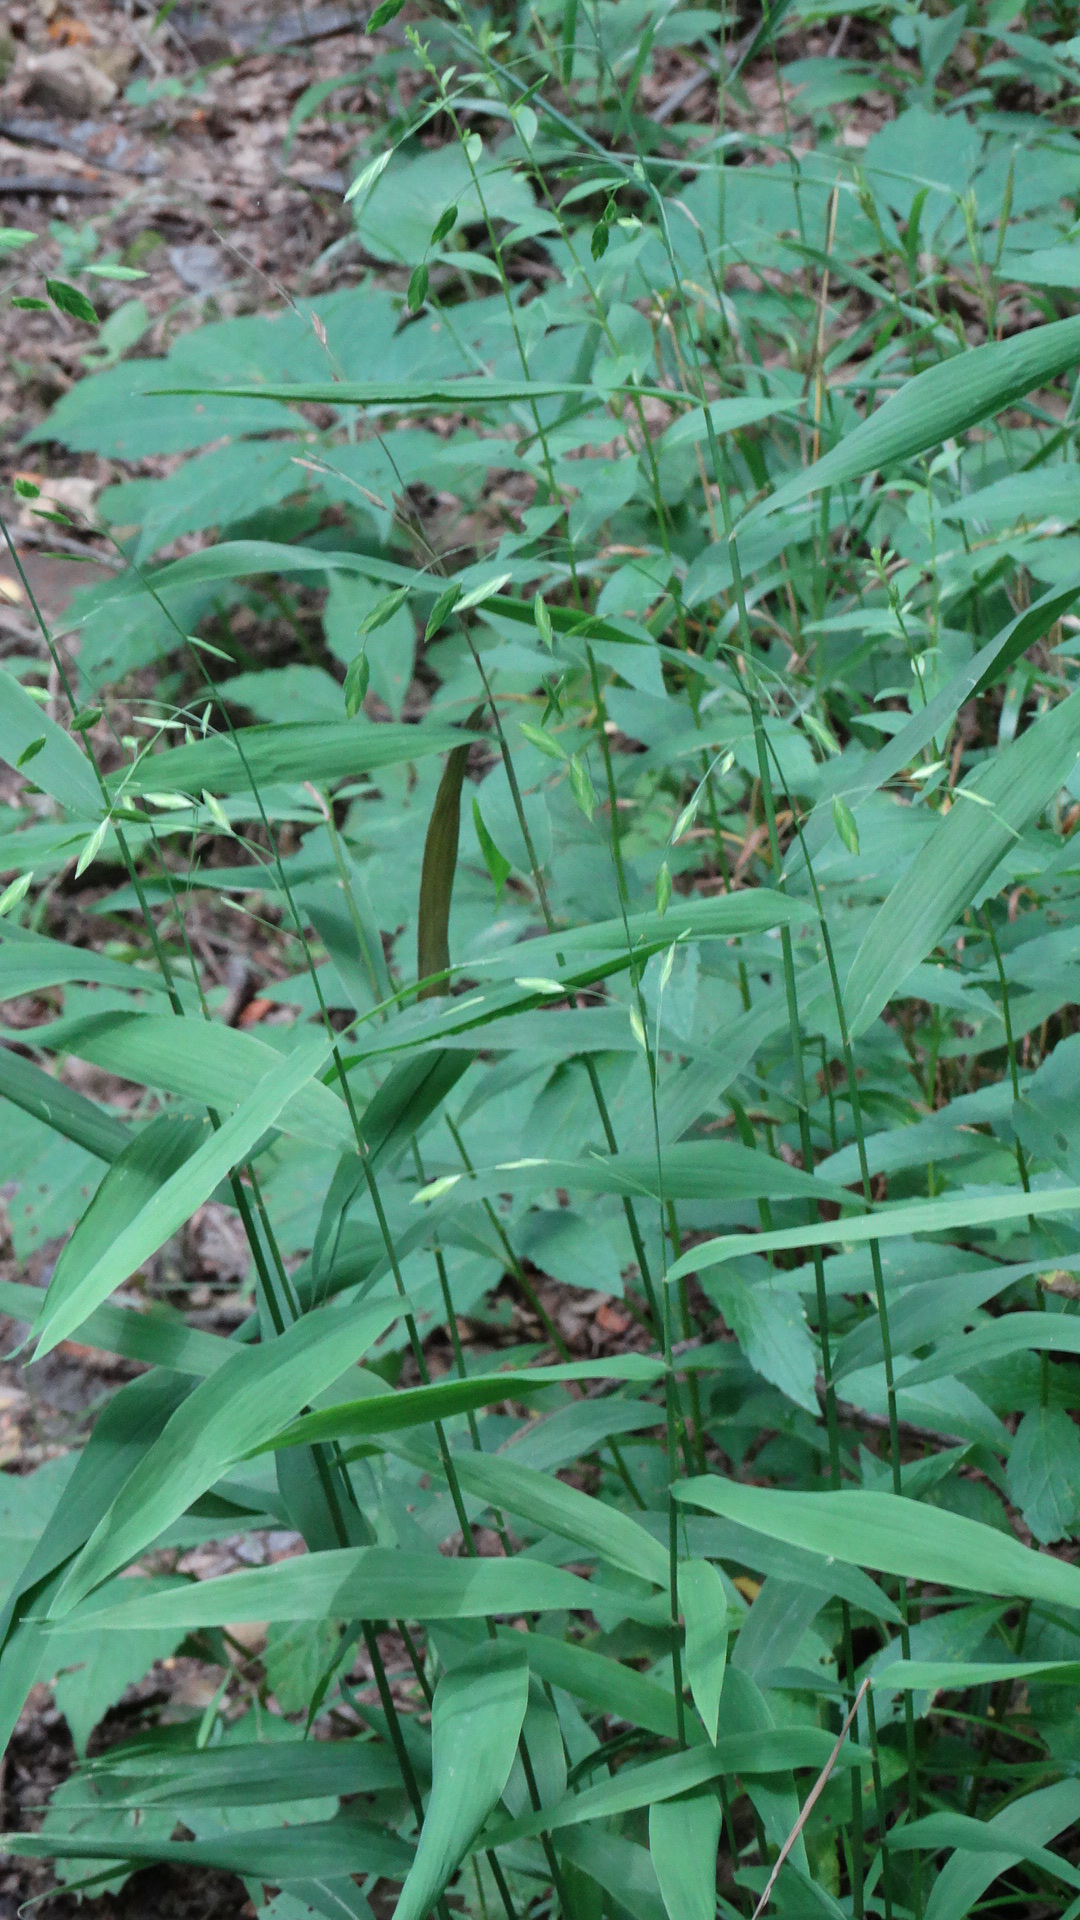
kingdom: Plantae
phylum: Tracheophyta
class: Liliopsida
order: Poales
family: Poaceae
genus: Chasmanthium
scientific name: Chasmanthium latifolium
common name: Broad-leaved chasmanthium
